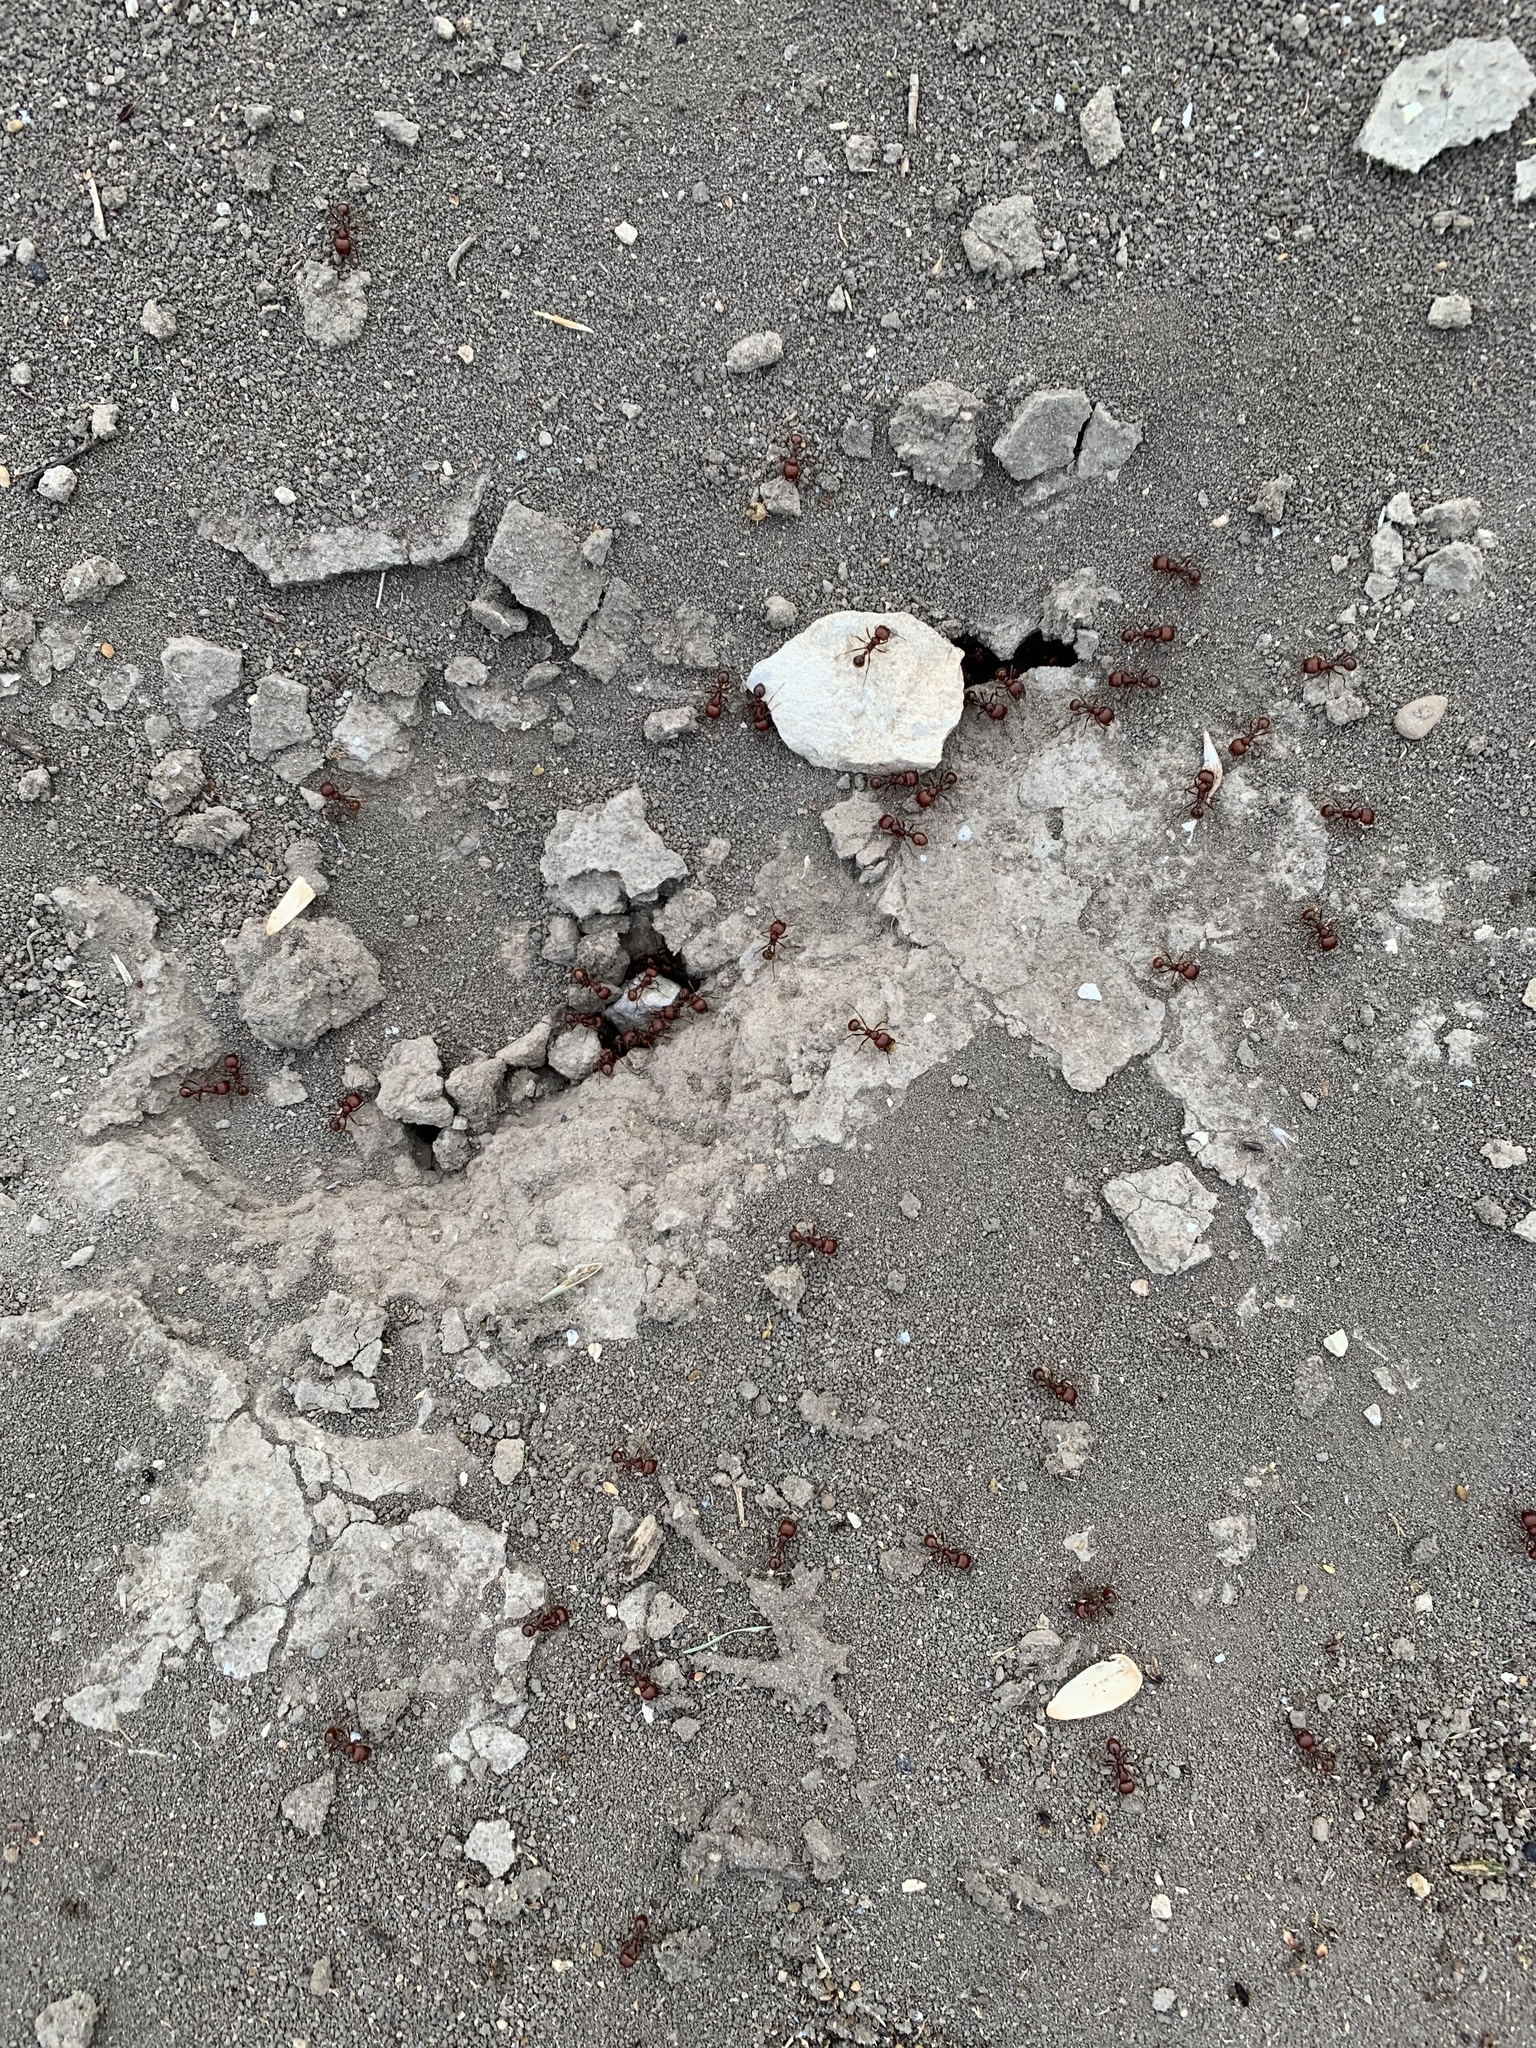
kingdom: Animalia
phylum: Arthropoda
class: Insecta
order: Hymenoptera
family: Formicidae
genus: Pogonomyrmex
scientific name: Pogonomyrmex barbatus
